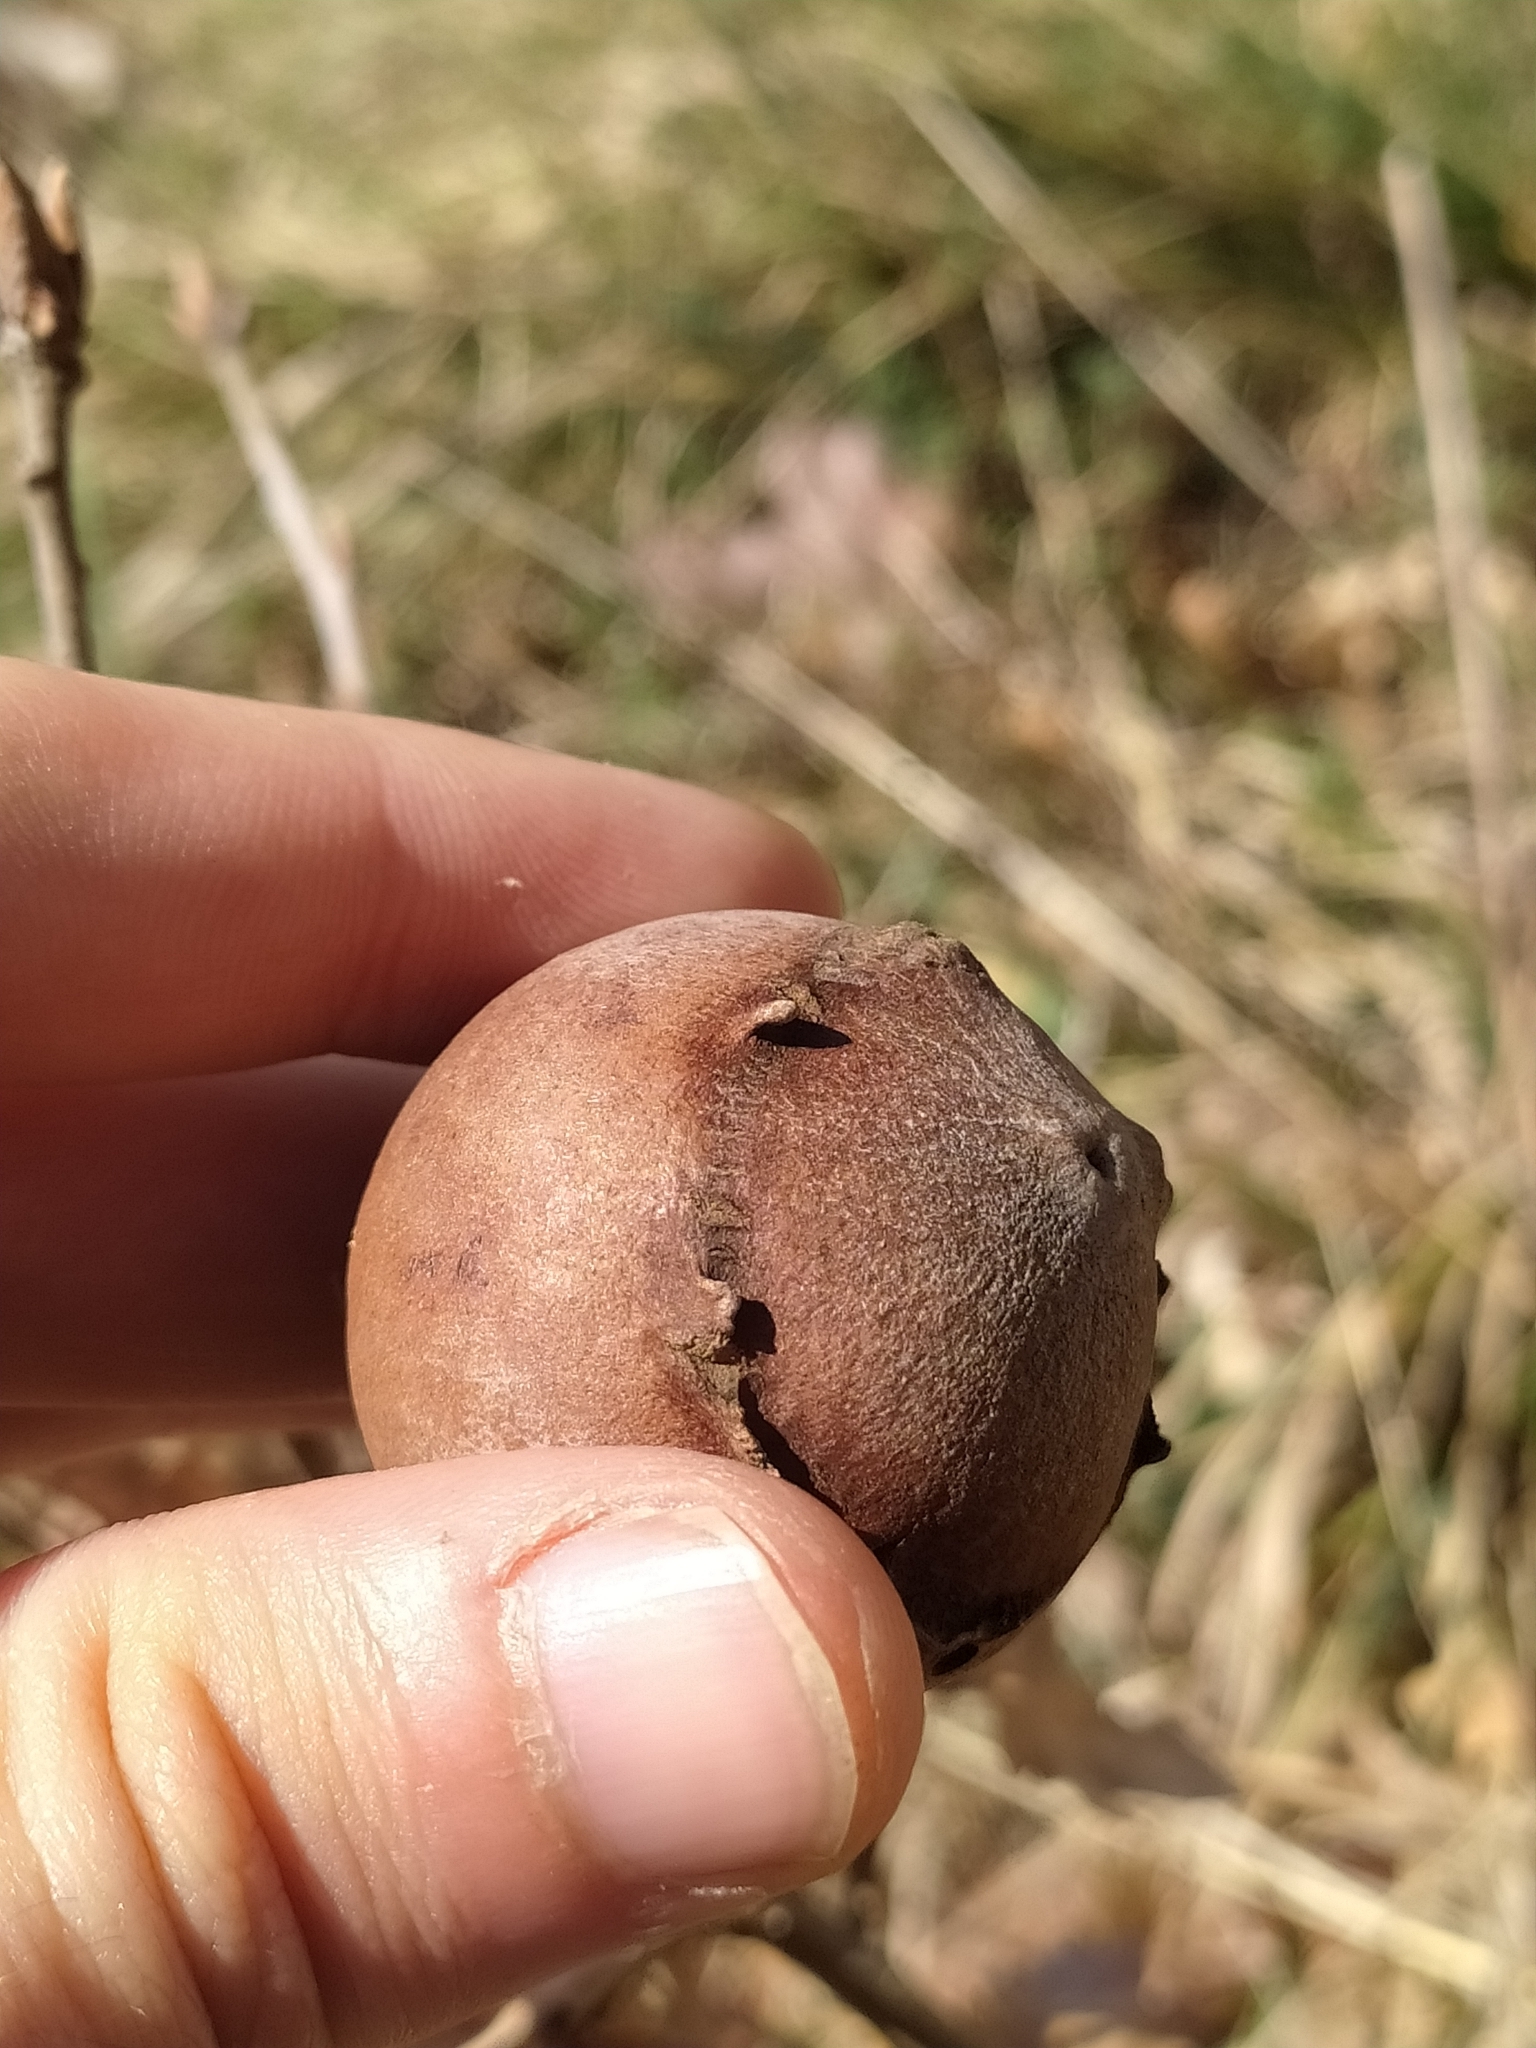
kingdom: Animalia
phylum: Arthropoda
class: Insecta
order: Hymenoptera
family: Cynipidae
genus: Andricus
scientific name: Andricus quercustozae
